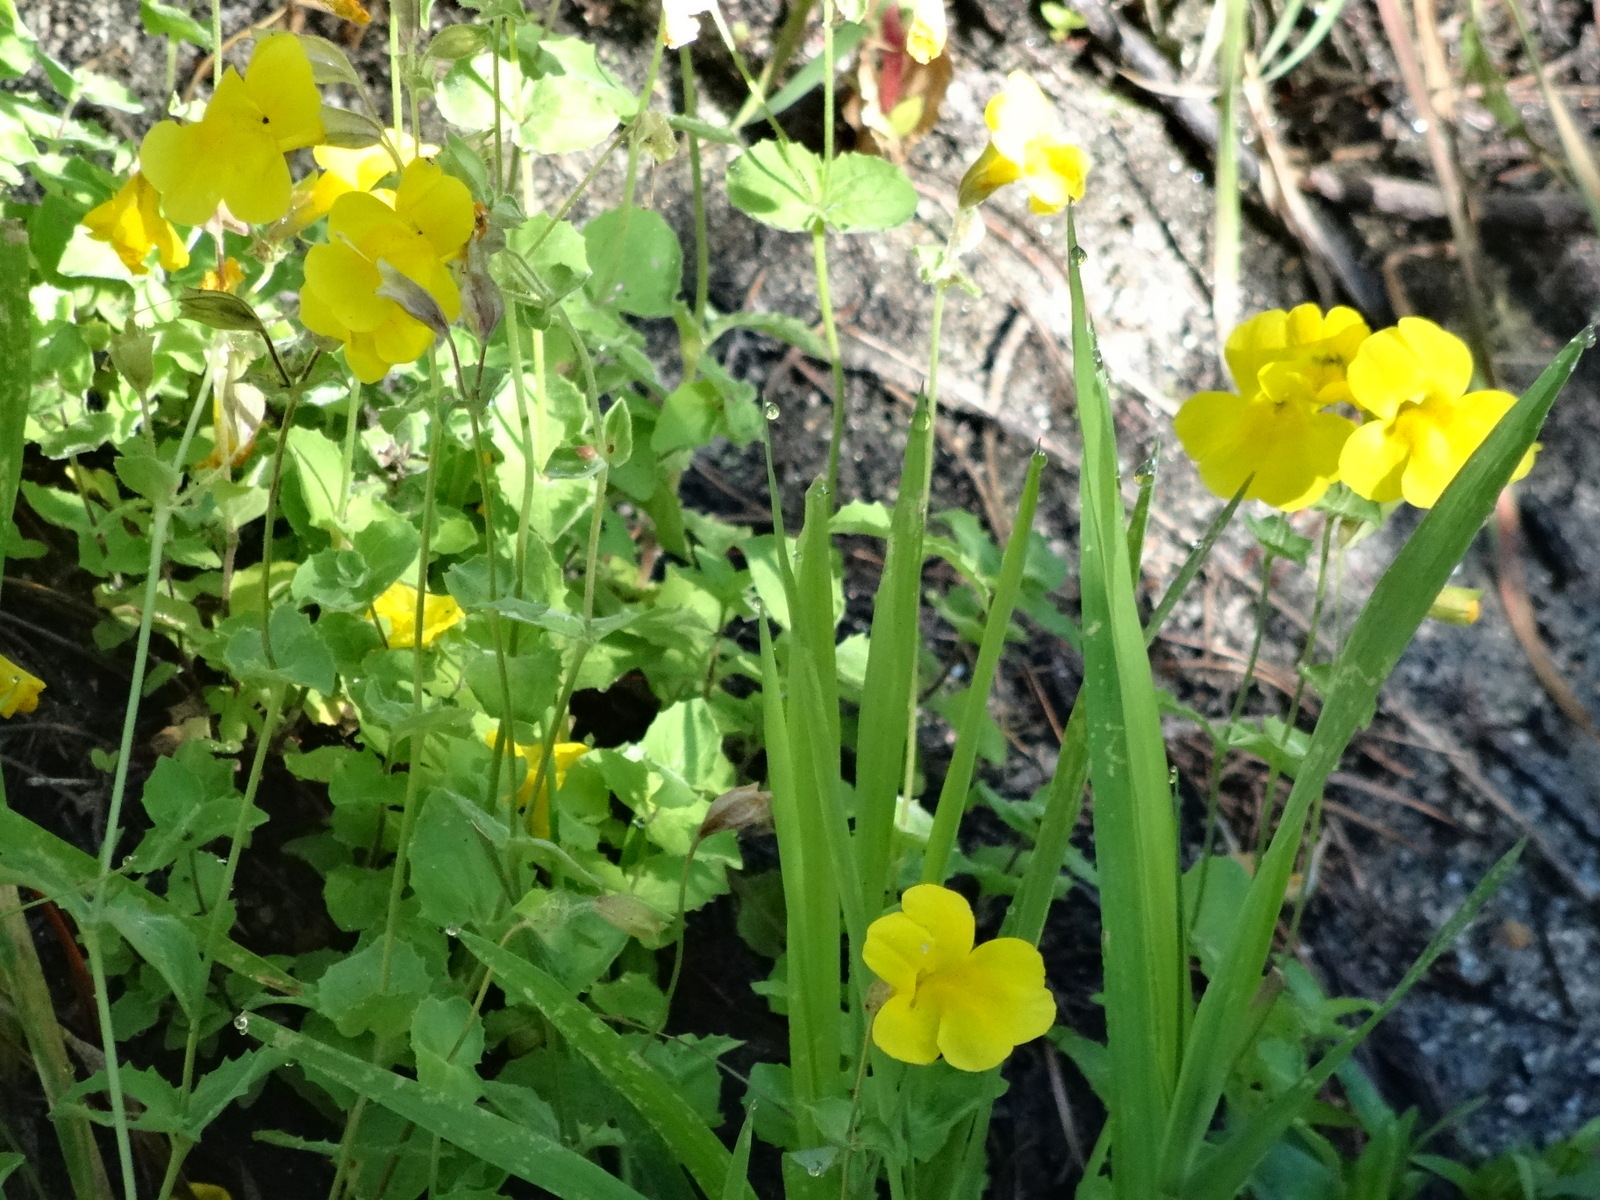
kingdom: Plantae
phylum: Tracheophyta
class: Magnoliopsida
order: Lamiales
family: Phrymaceae
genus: Erythranthe
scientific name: Erythranthe guttata
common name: Monkeyflower
